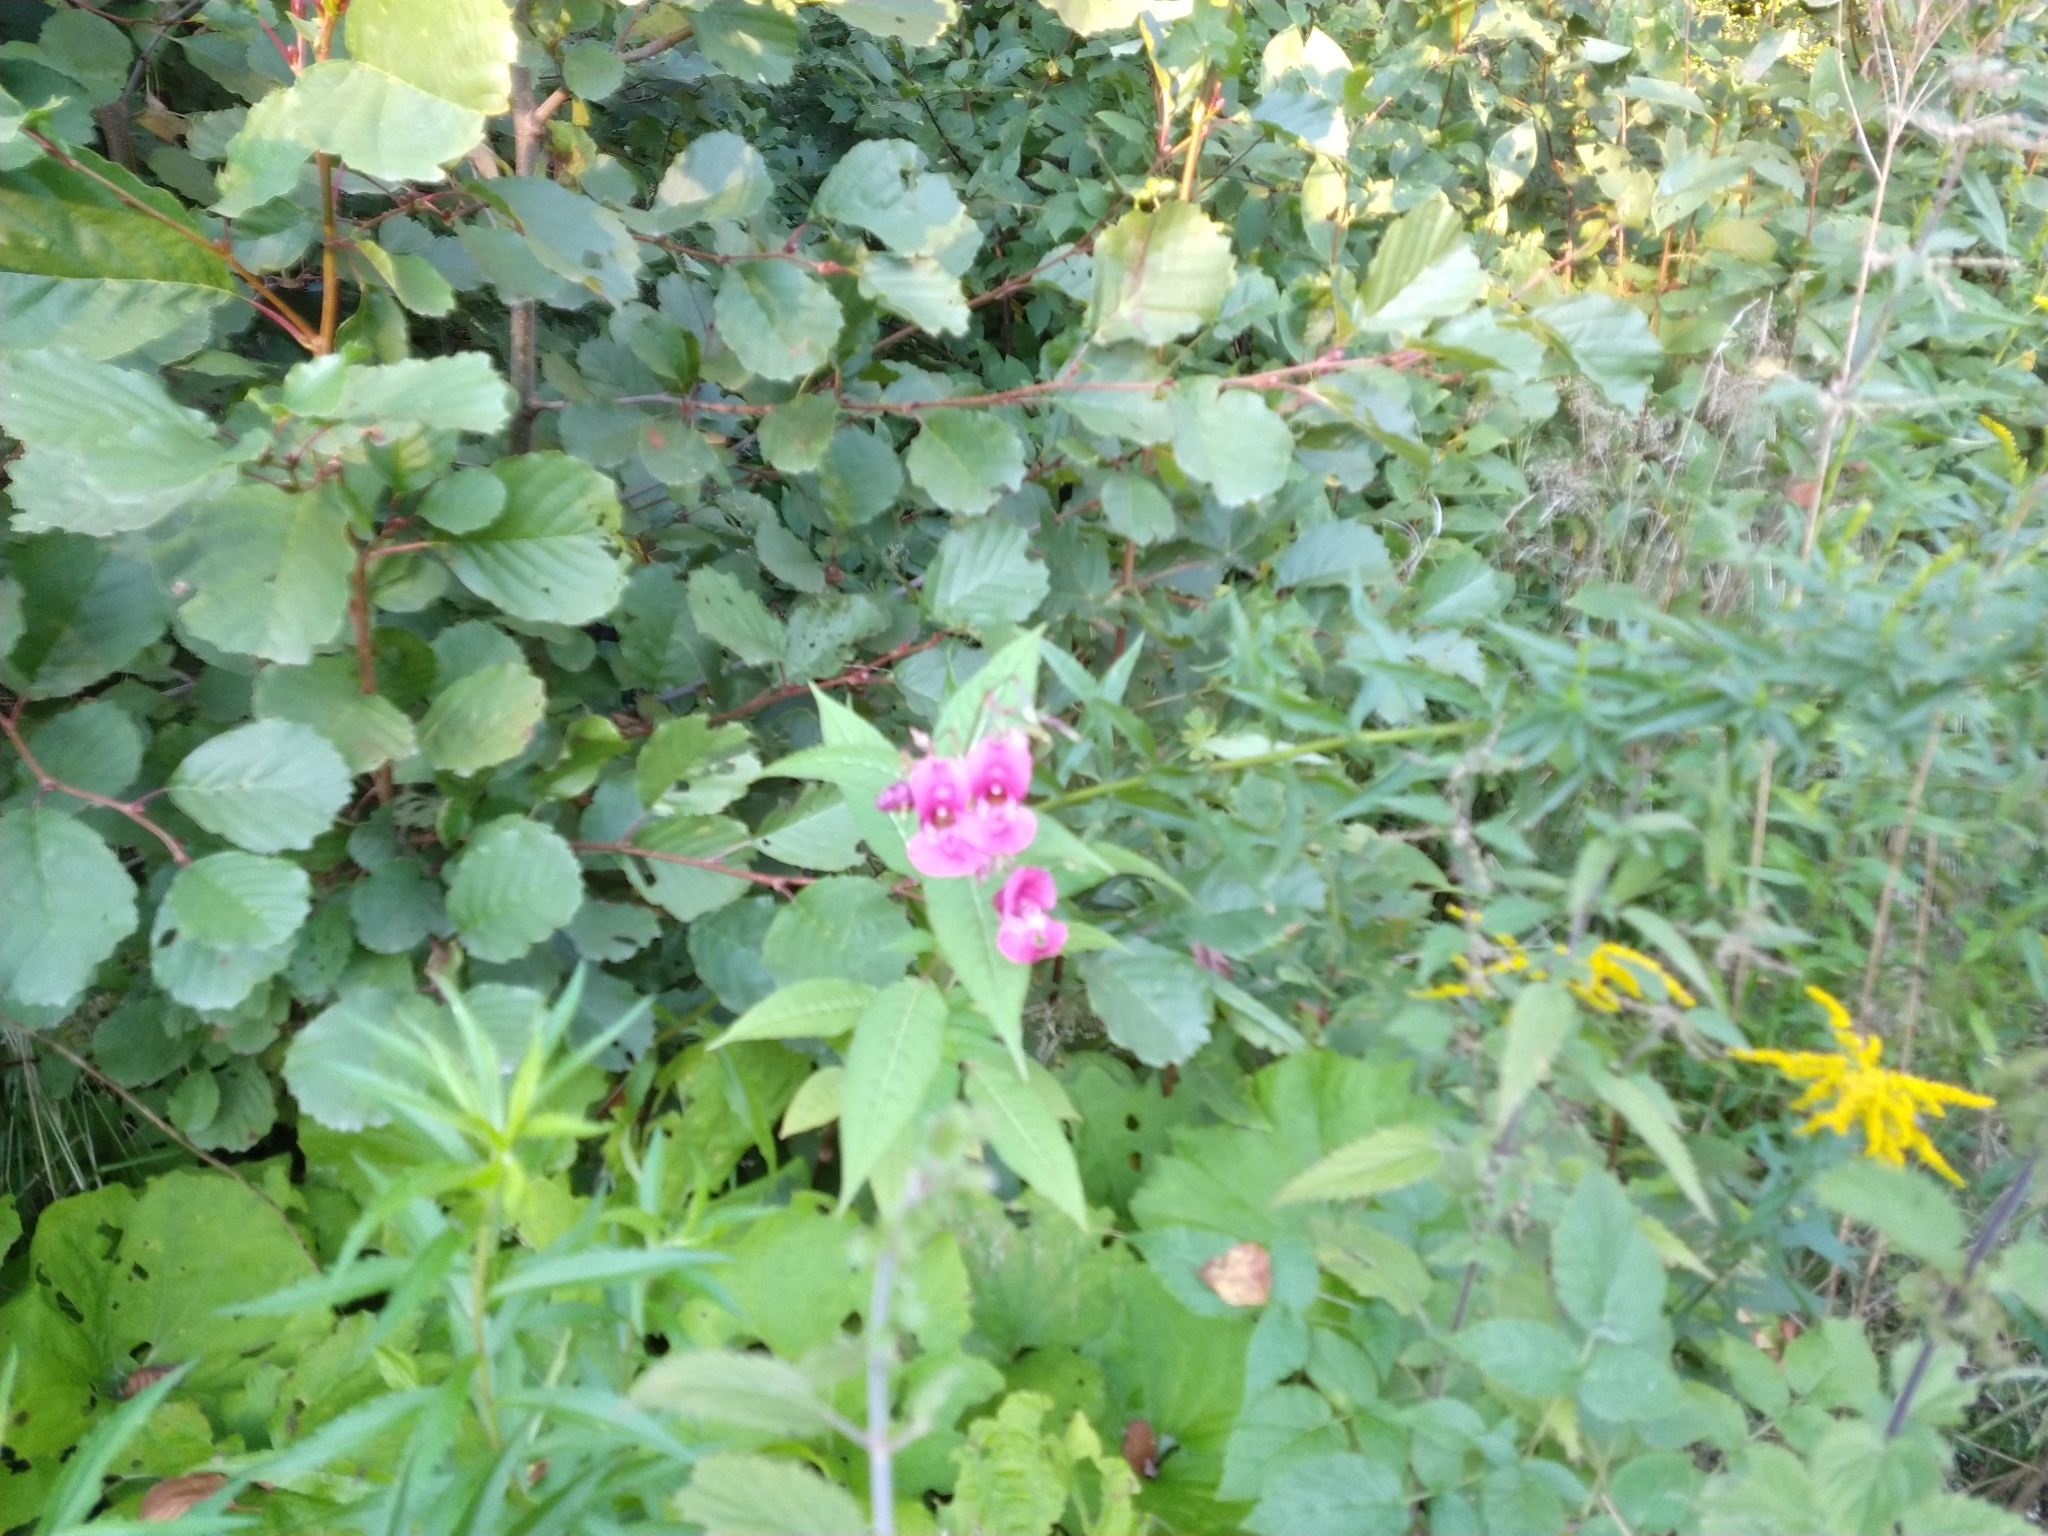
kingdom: Plantae
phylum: Tracheophyta
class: Magnoliopsida
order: Ericales
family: Balsaminaceae
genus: Impatiens
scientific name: Impatiens glandulifera
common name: Himalayan balsam
